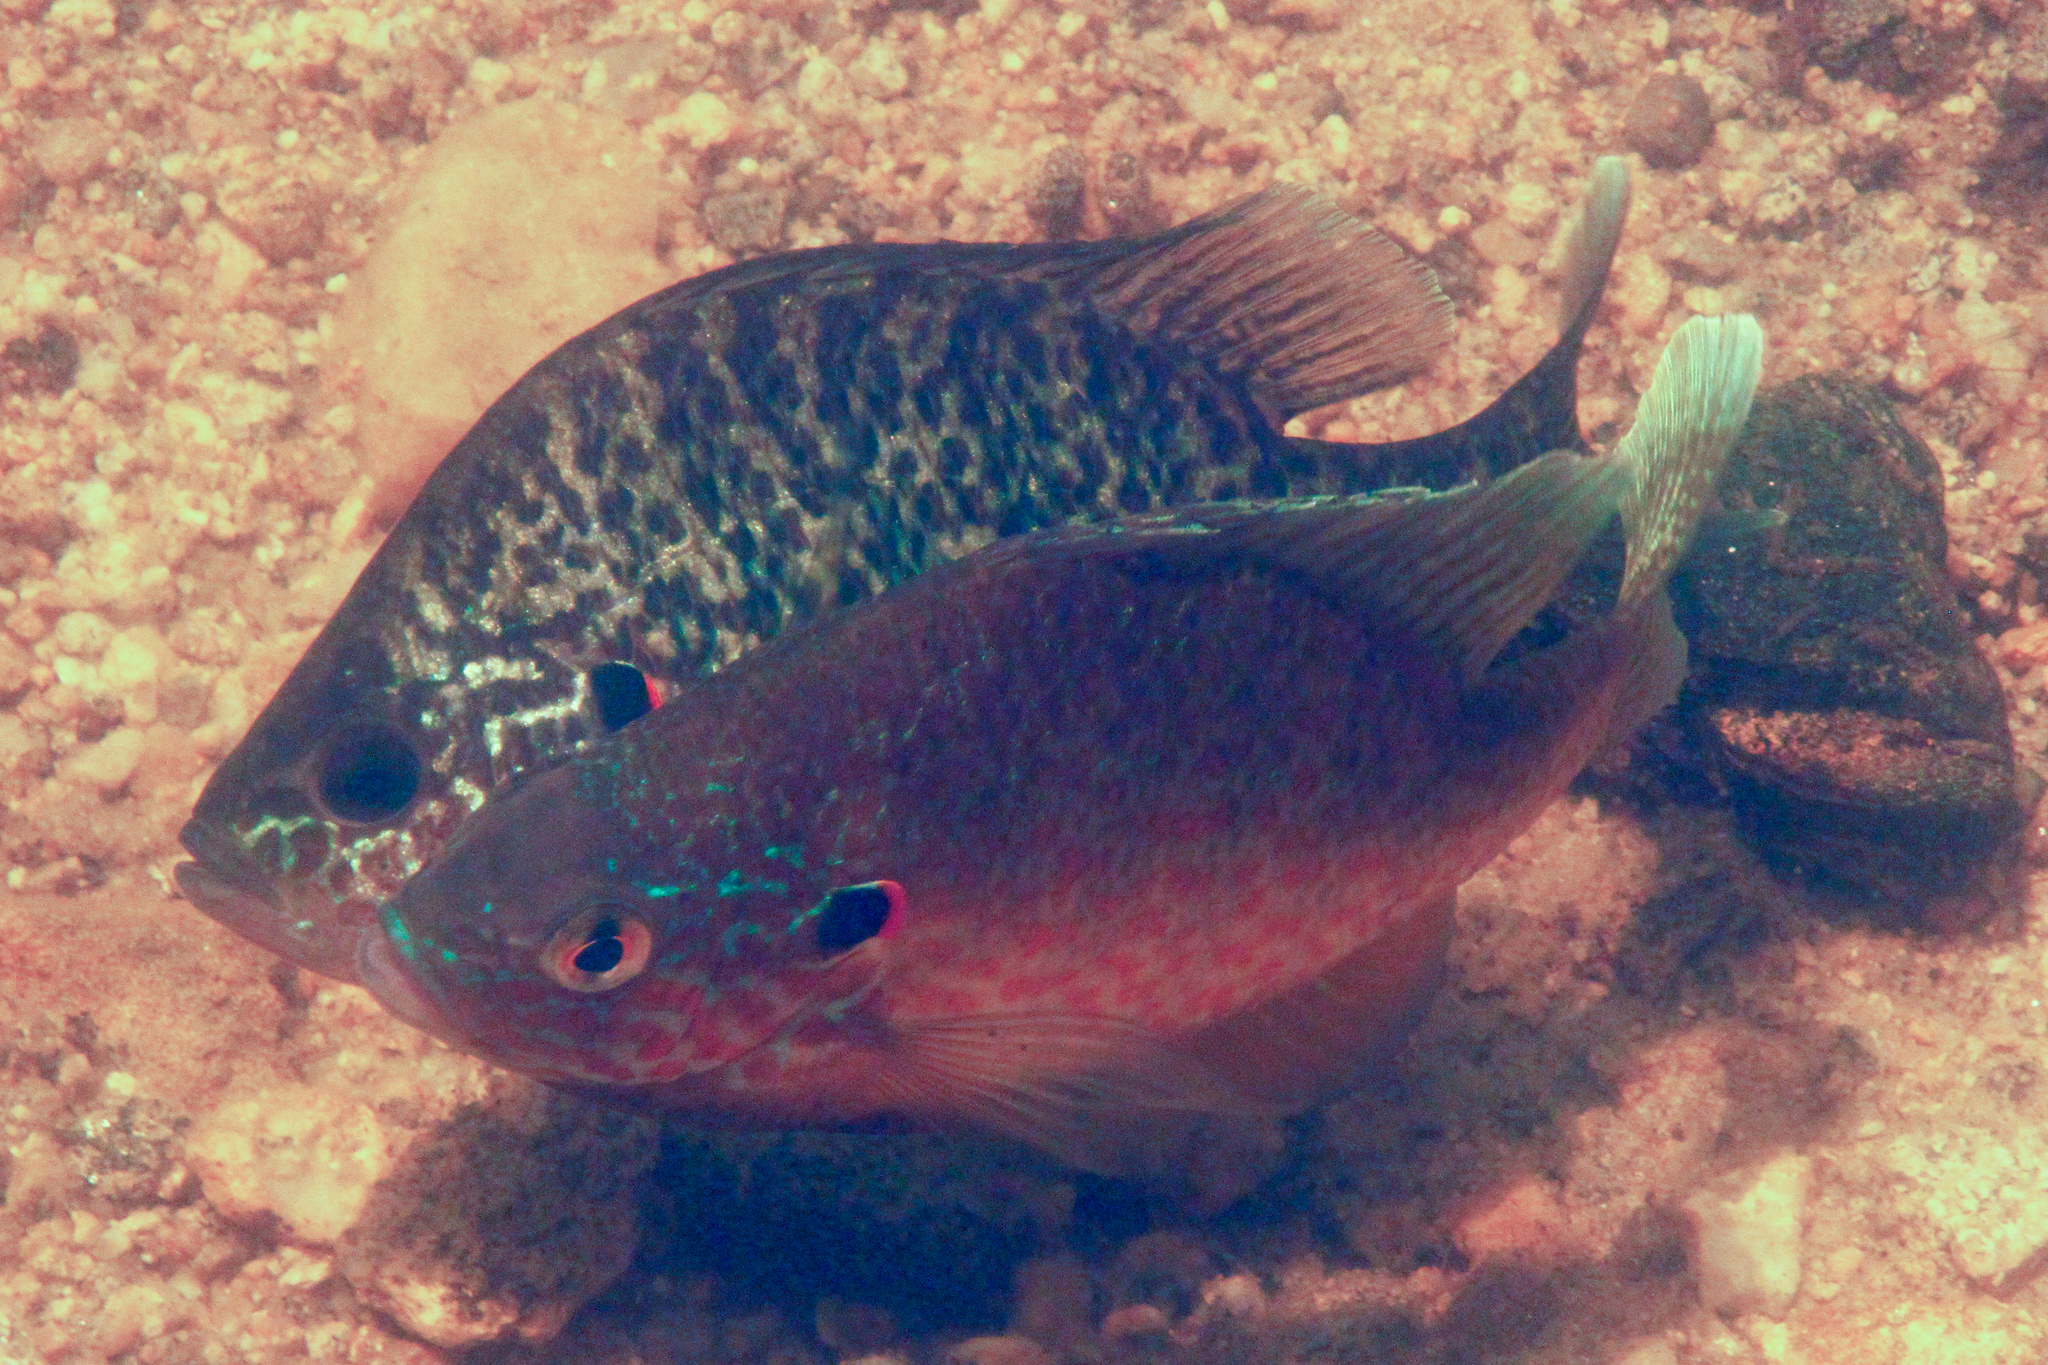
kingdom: Animalia
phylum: Chordata
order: Perciformes
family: Centrarchidae
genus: Lepomis
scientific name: Lepomis gibbosus
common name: Pumpkinseed
